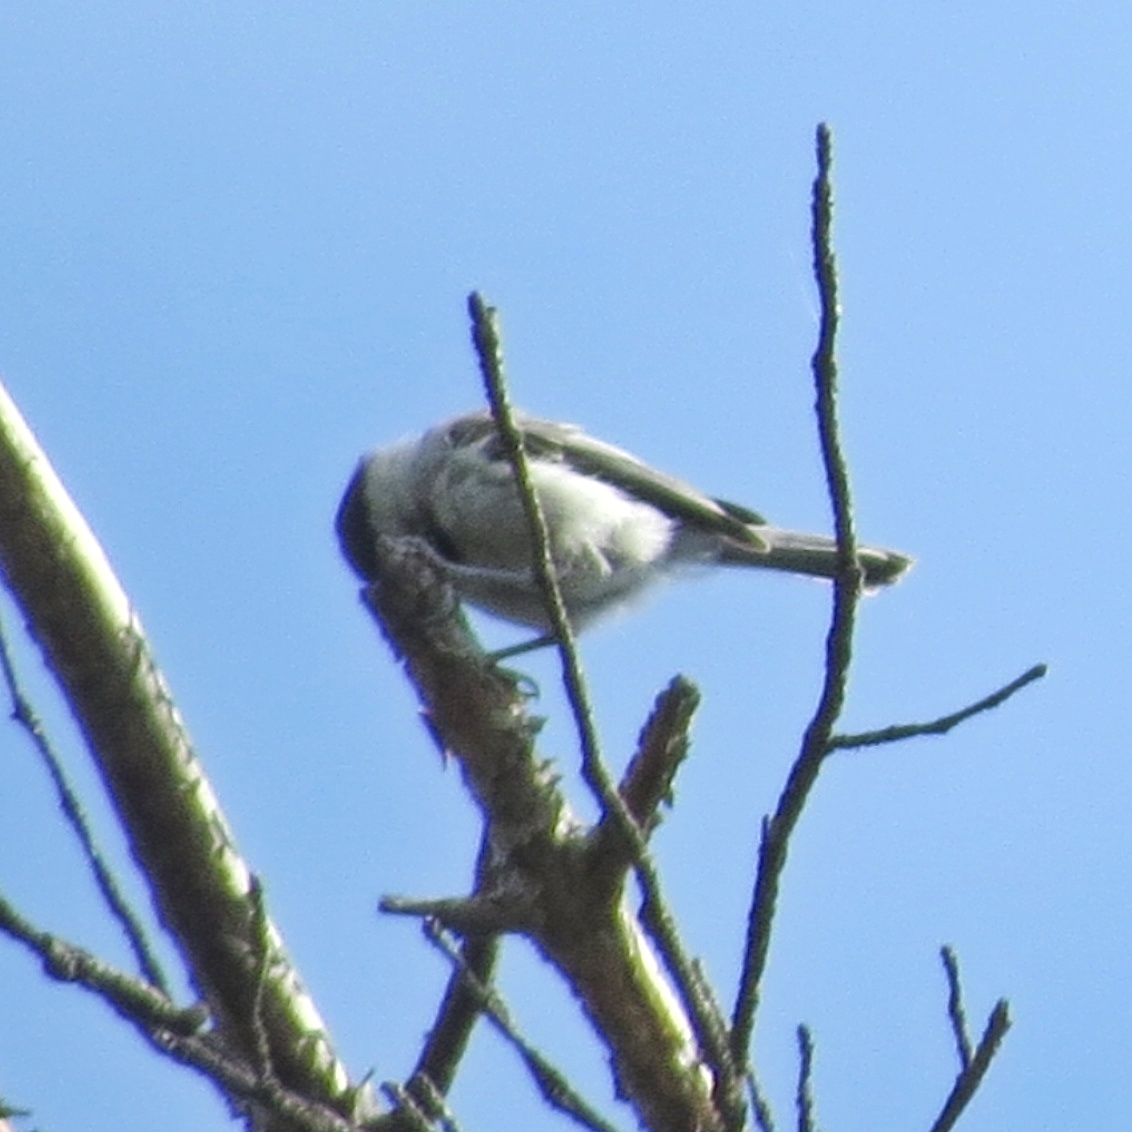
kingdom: Animalia
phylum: Chordata
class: Aves
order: Passeriformes
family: Paridae
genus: Poecile
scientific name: Poecile montanus
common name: Willow tit
